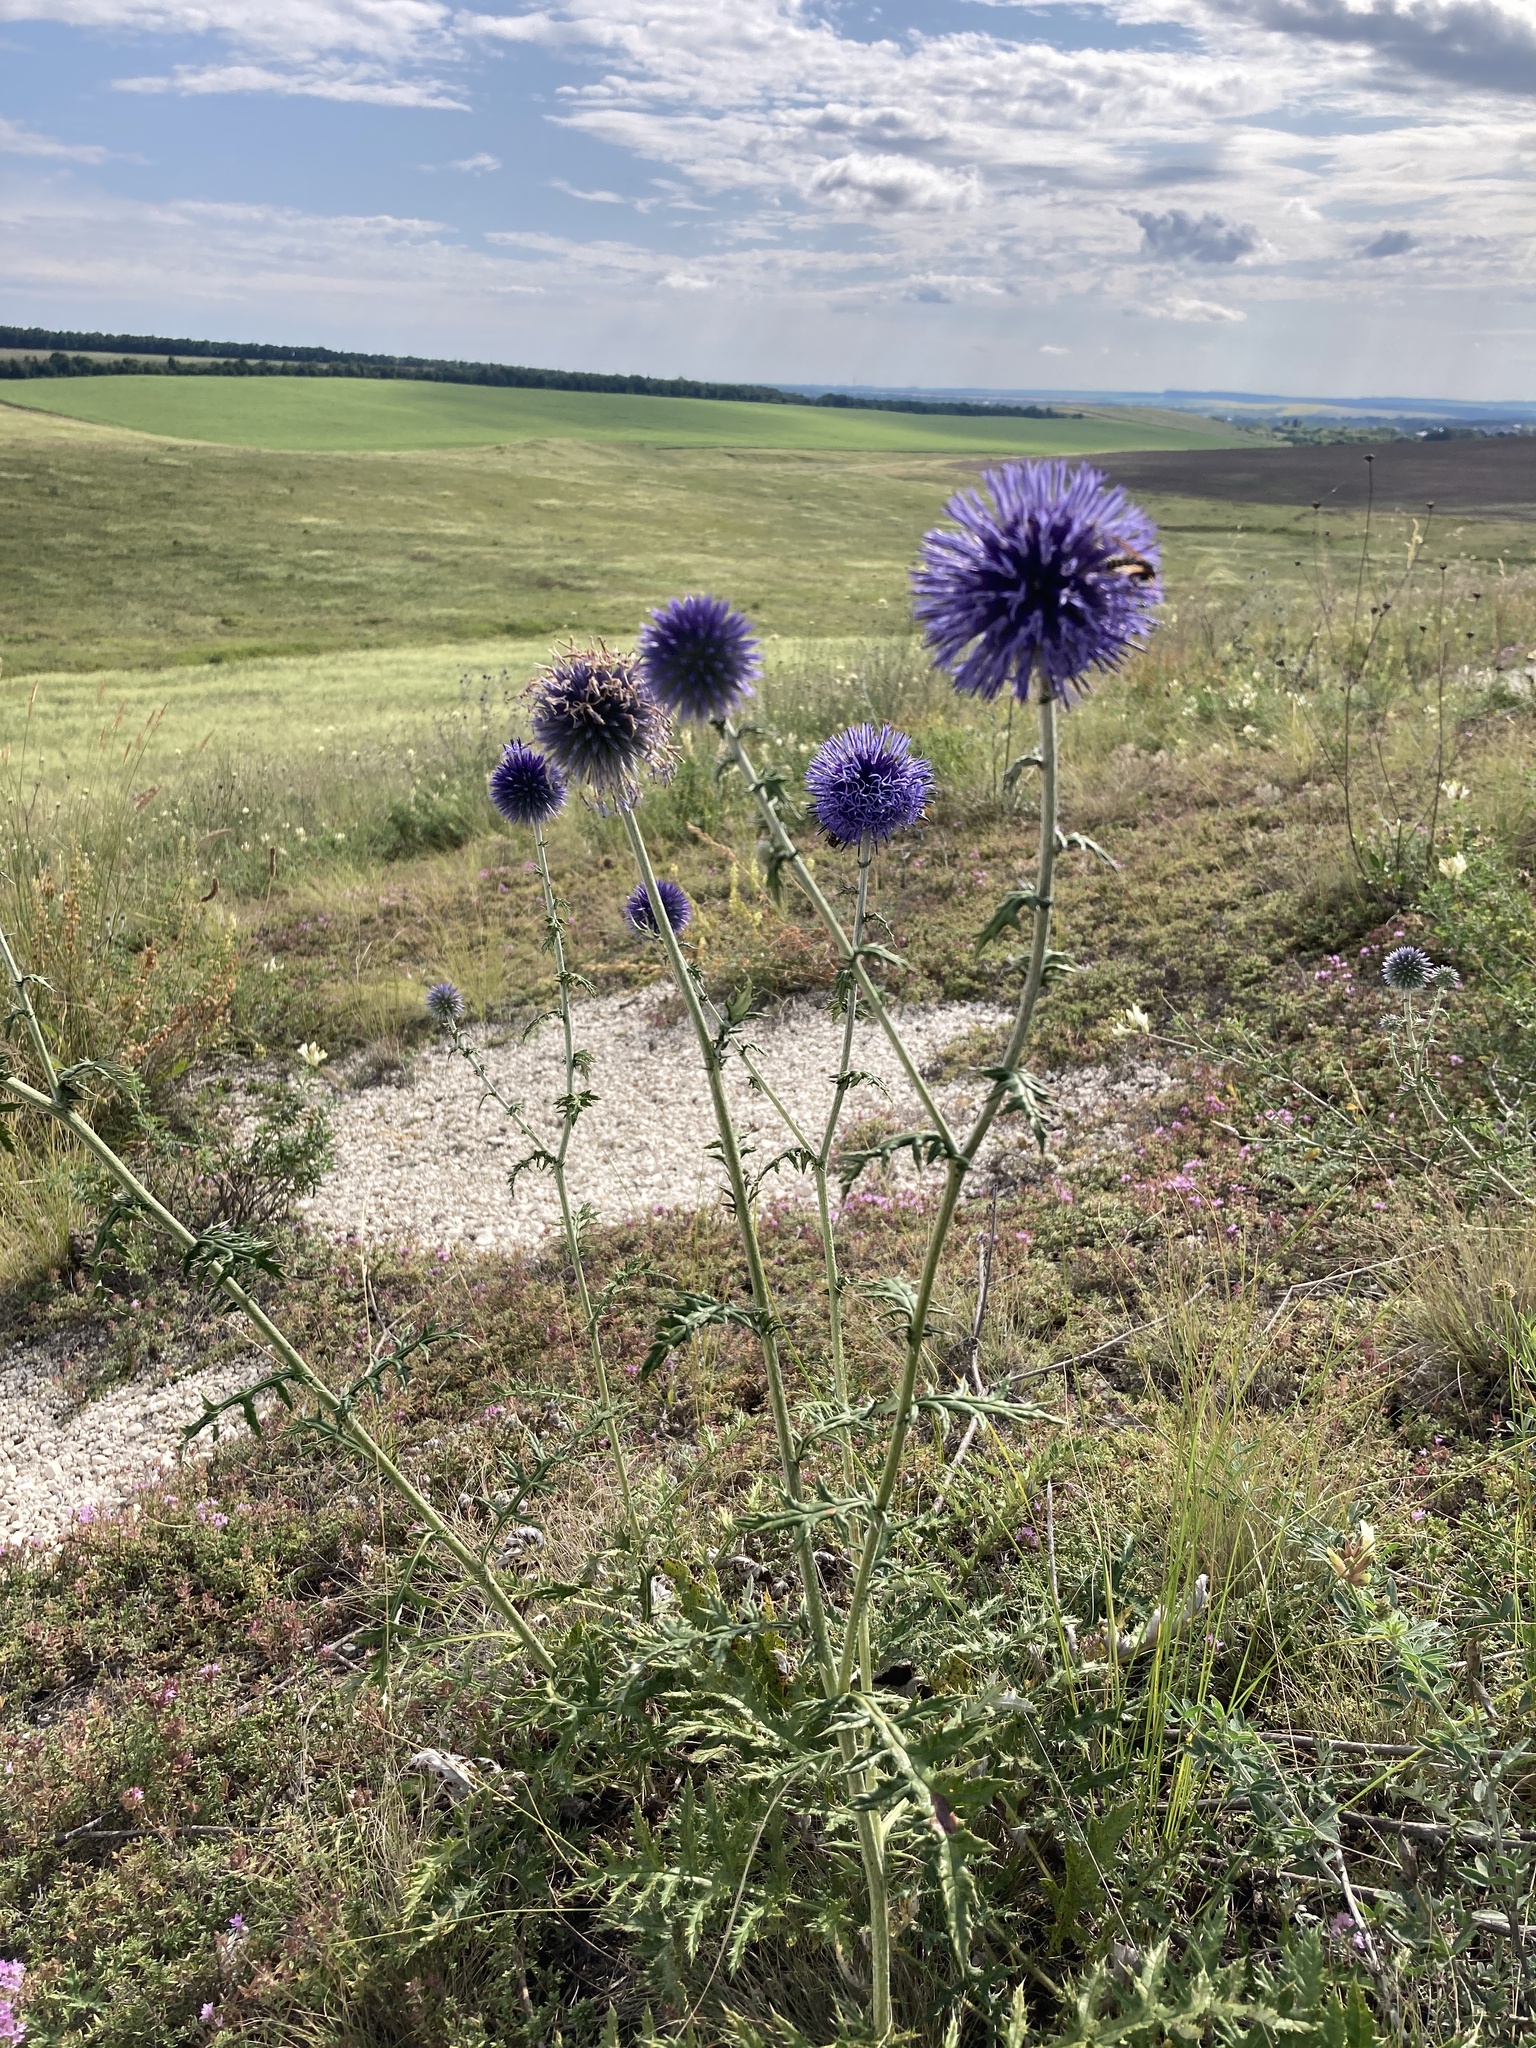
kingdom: Plantae
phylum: Tracheophyta
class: Magnoliopsida
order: Asterales
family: Asteraceae
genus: Echinops
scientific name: Echinops ritro
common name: Globe thistle
